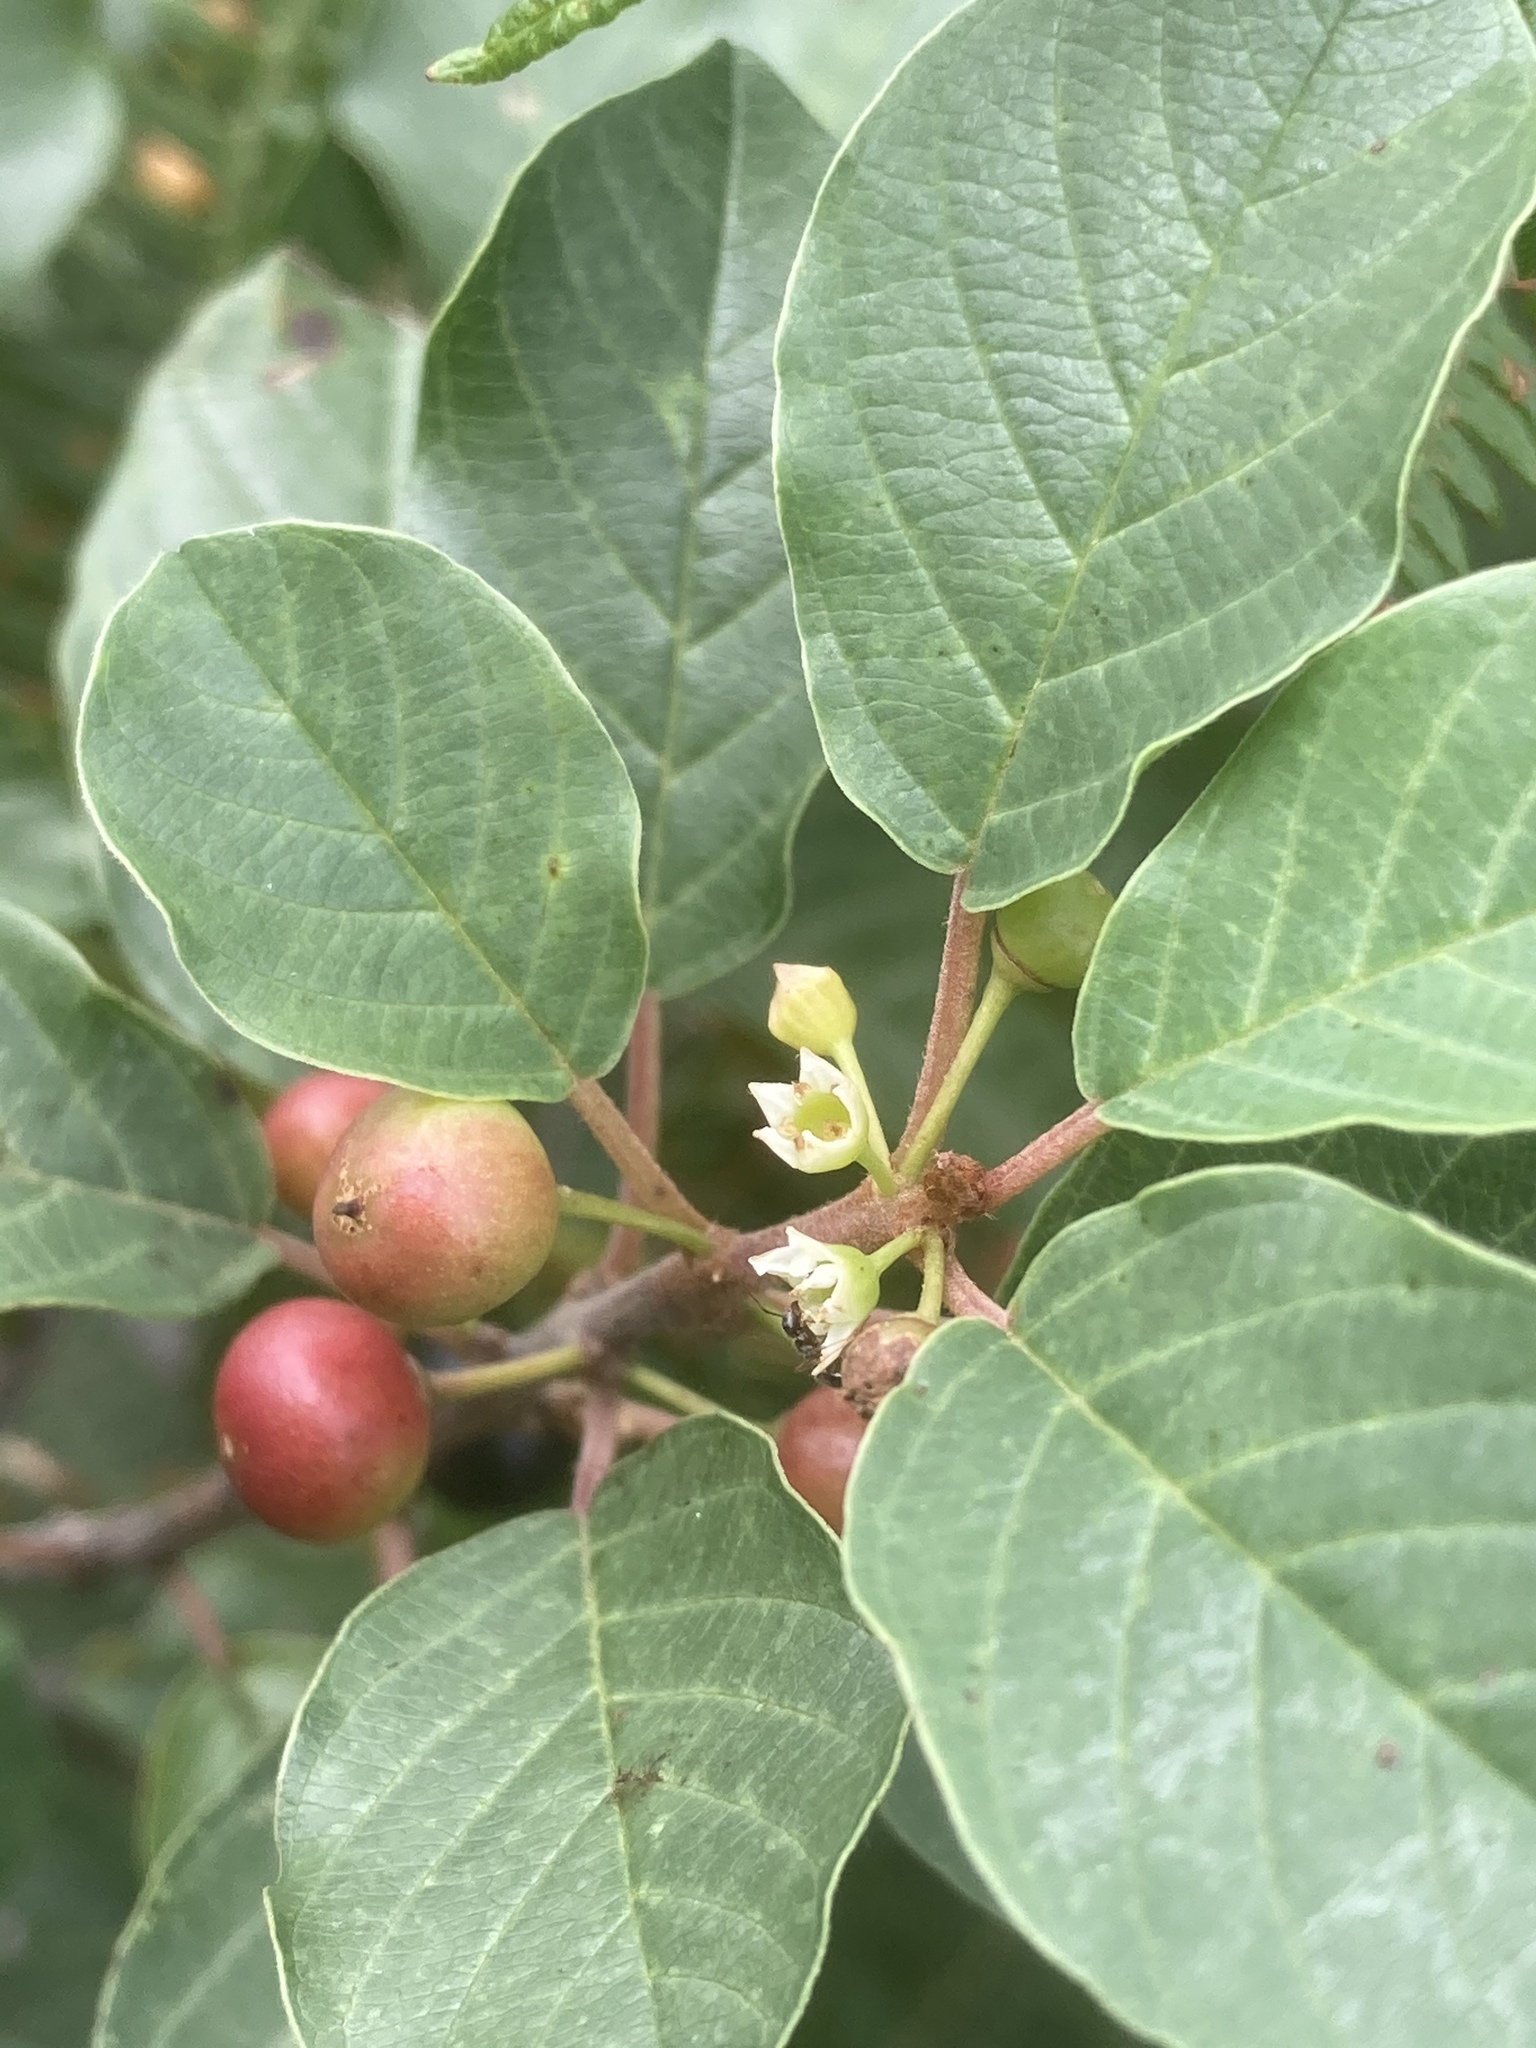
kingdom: Plantae
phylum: Tracheophyta
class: Magnoliopsida
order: Rosales
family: Rhamnaceae
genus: Frangula
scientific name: Frangula alnus
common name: Alder buckthorn
